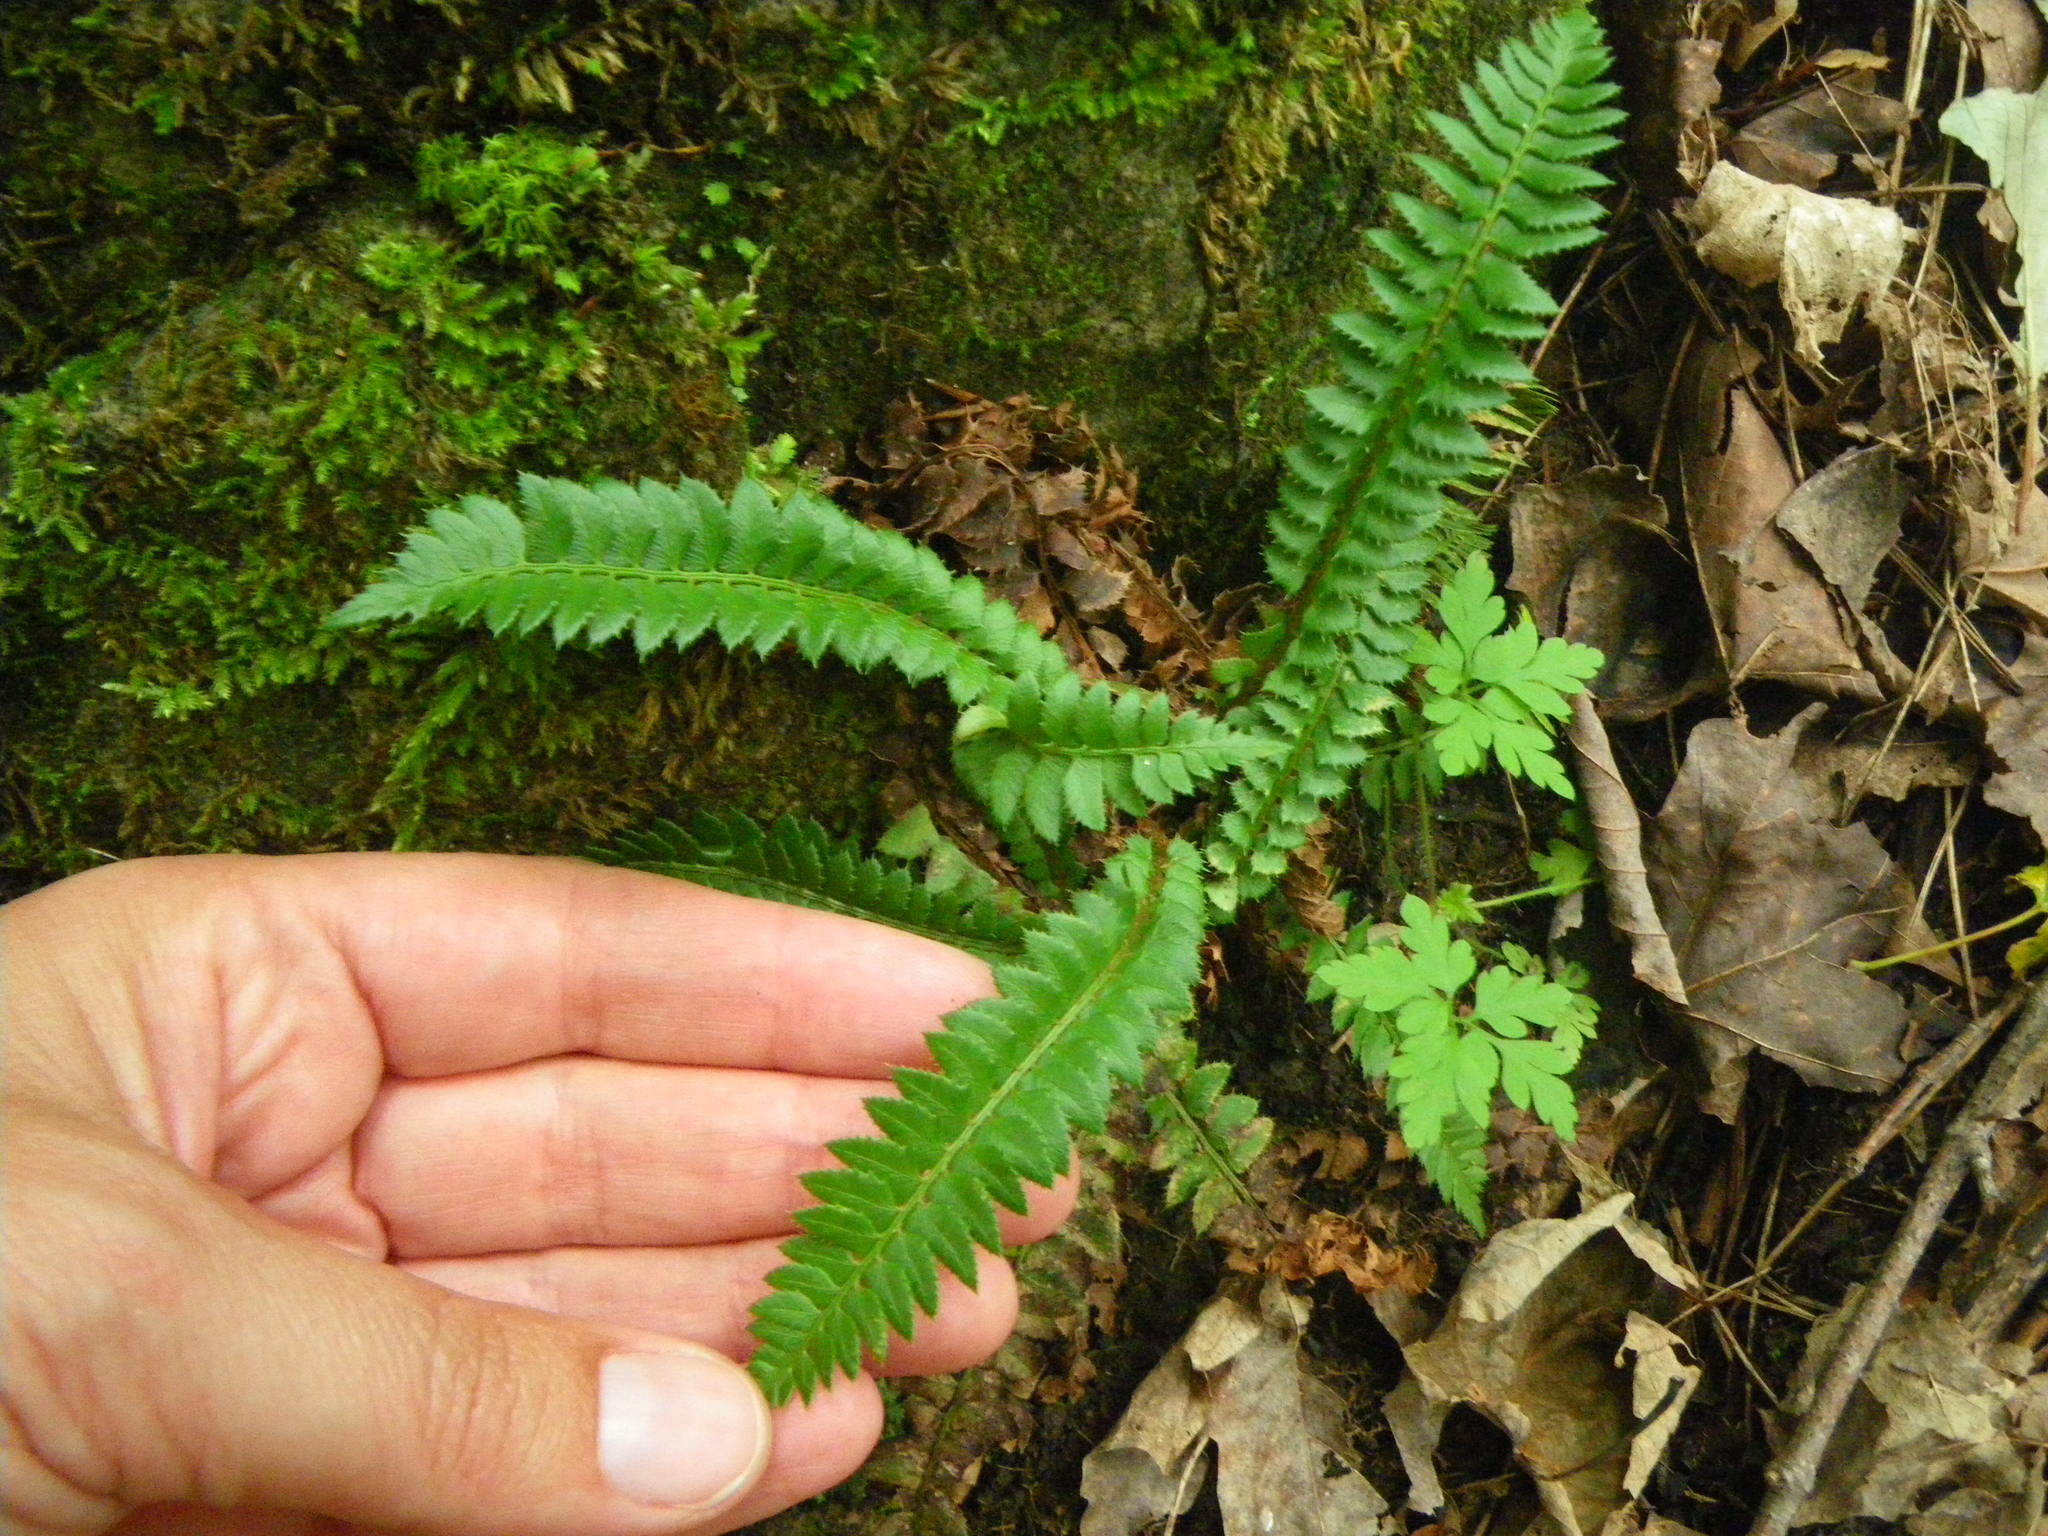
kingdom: Plantae
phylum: Tracheophyta
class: Polypodiopsida
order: Polypodiales
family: Dryopteridaceae
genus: Polystichum
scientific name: Polystichum lonchitis
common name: Holly fern
